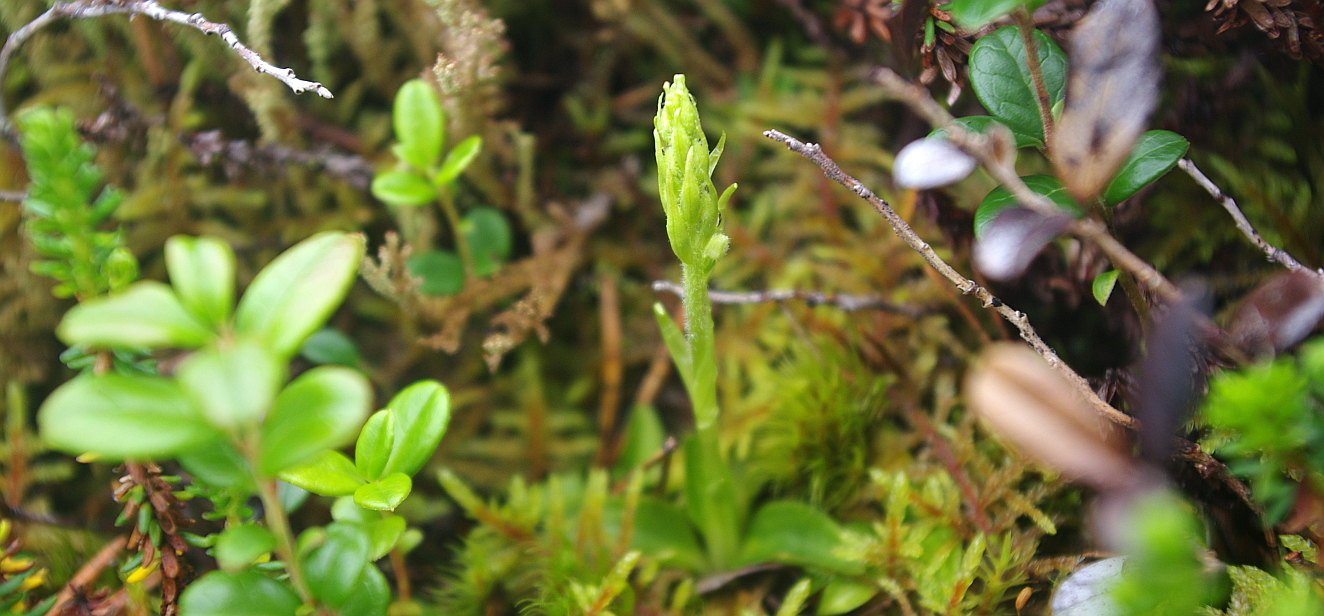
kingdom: Plantae
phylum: Tracheophyta
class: Liliopsida
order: Asparagales
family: Orchidaceae
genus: Goodyera
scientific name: Goodyera repens
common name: Creeping lady's-tresses
